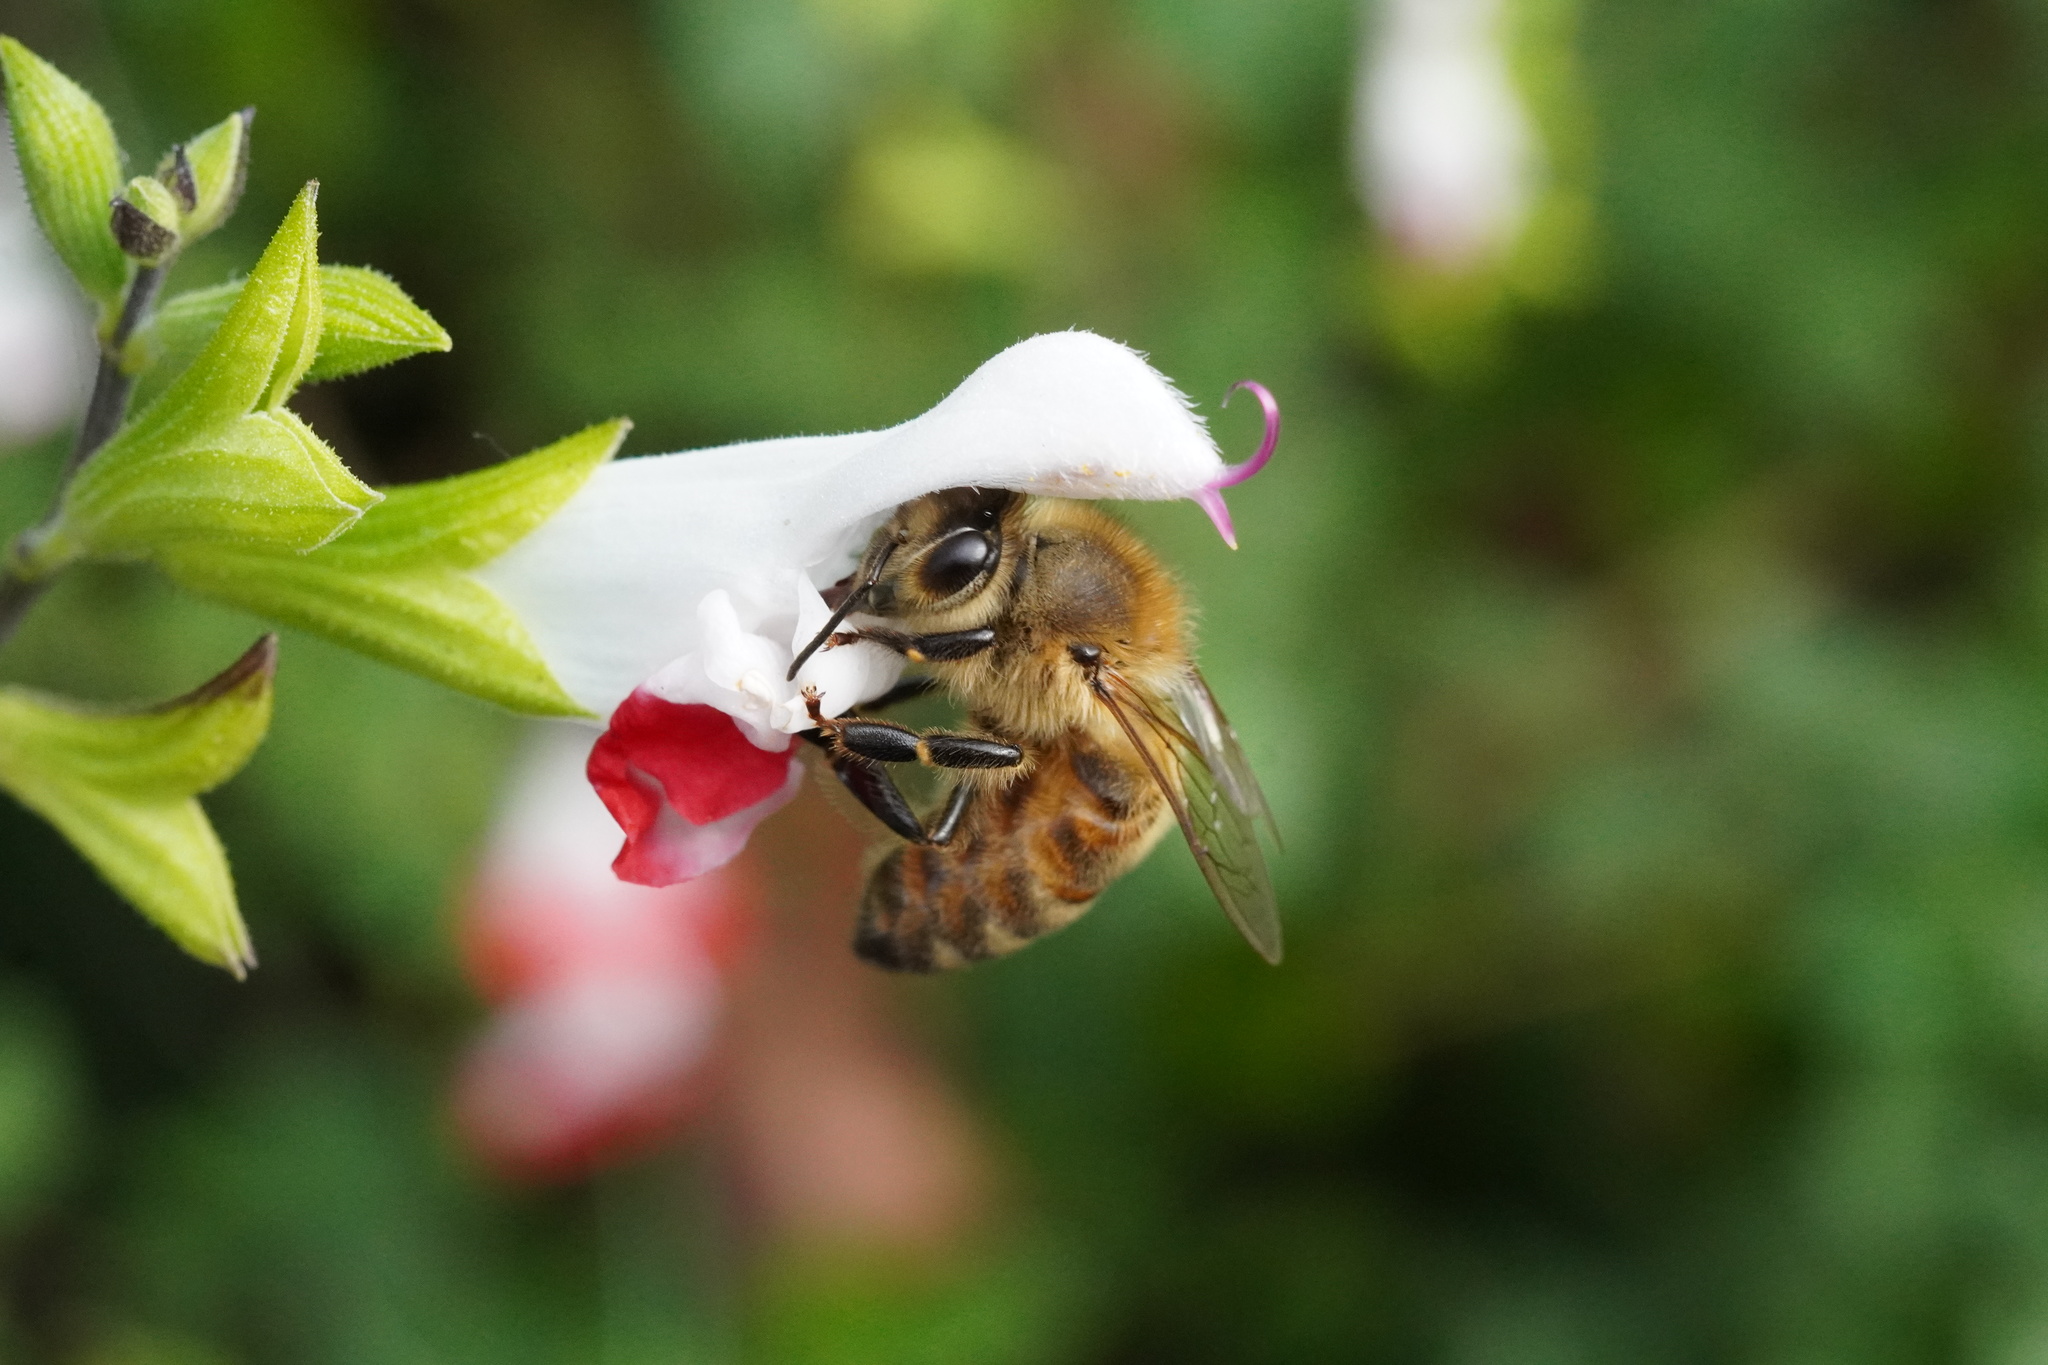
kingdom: Animalia
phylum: Arthropoda
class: Insecta
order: Hymenoptera
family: Apidae
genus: Apis
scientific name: Apis mellifera
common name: Honey bee
